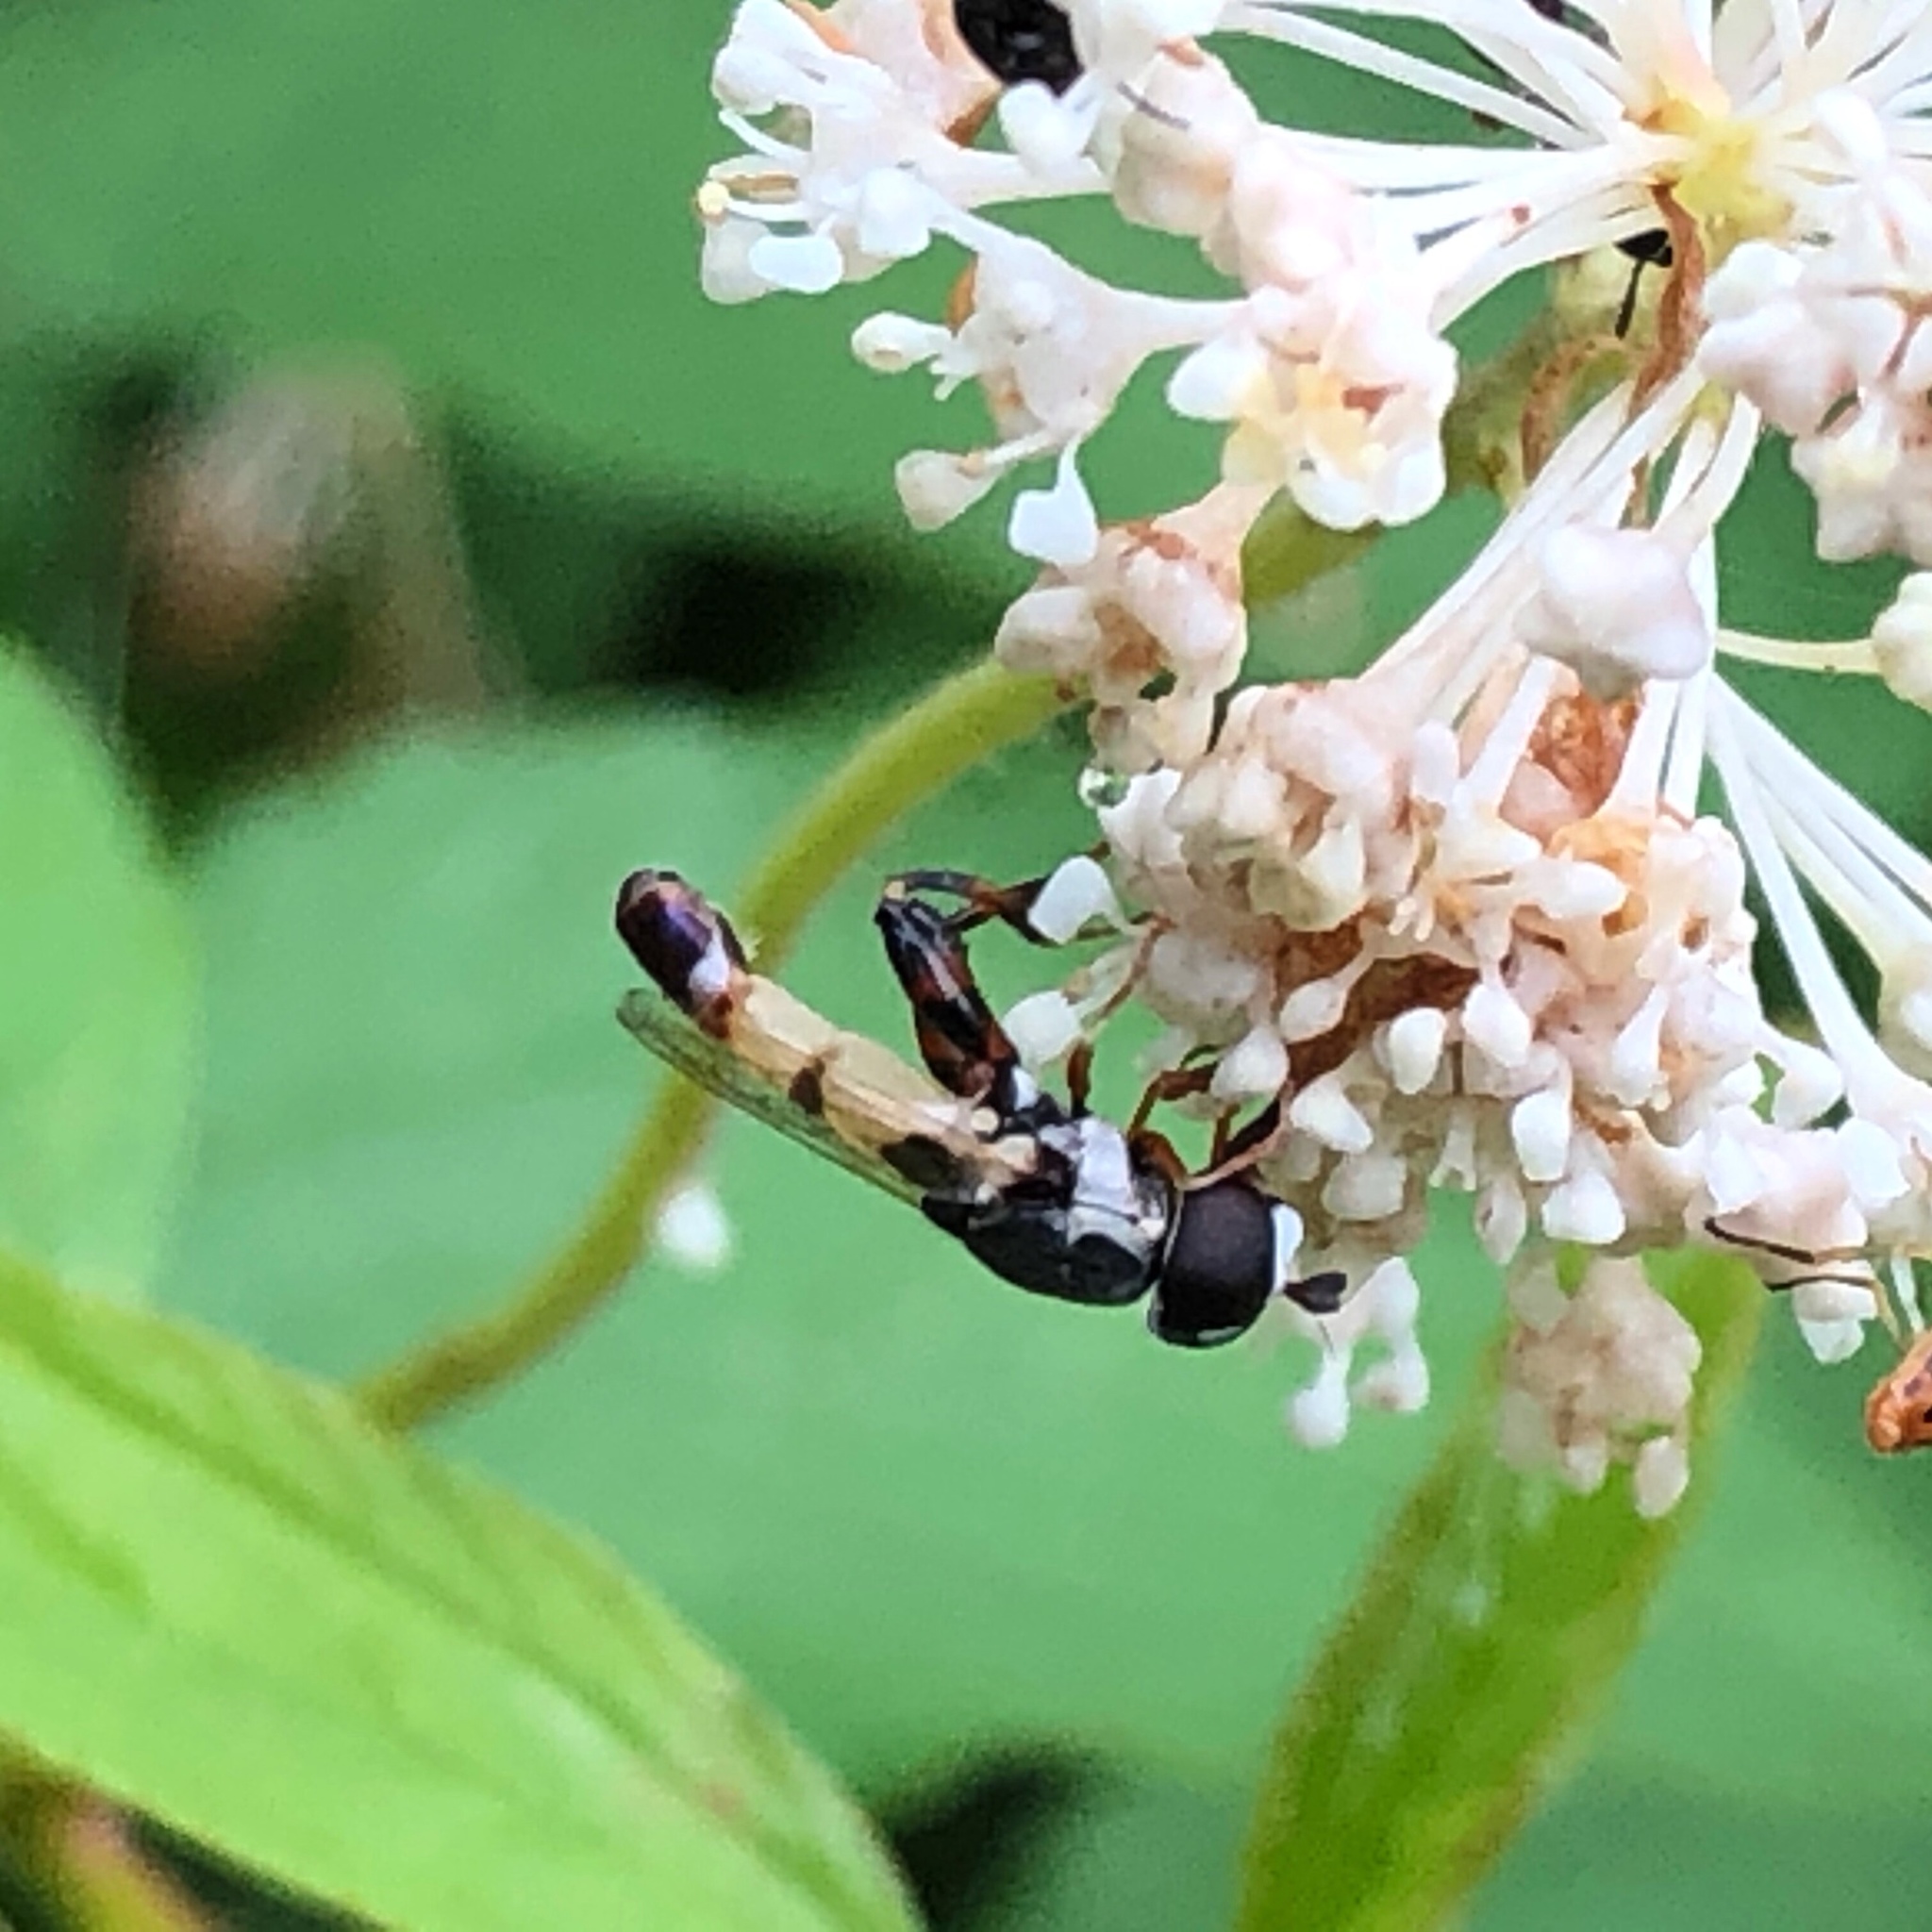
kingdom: Animalia
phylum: Arthropoda
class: Insecta
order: Diptera
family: Syrphidae
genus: Syritta
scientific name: Syritta pipiens
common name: Hover fly
